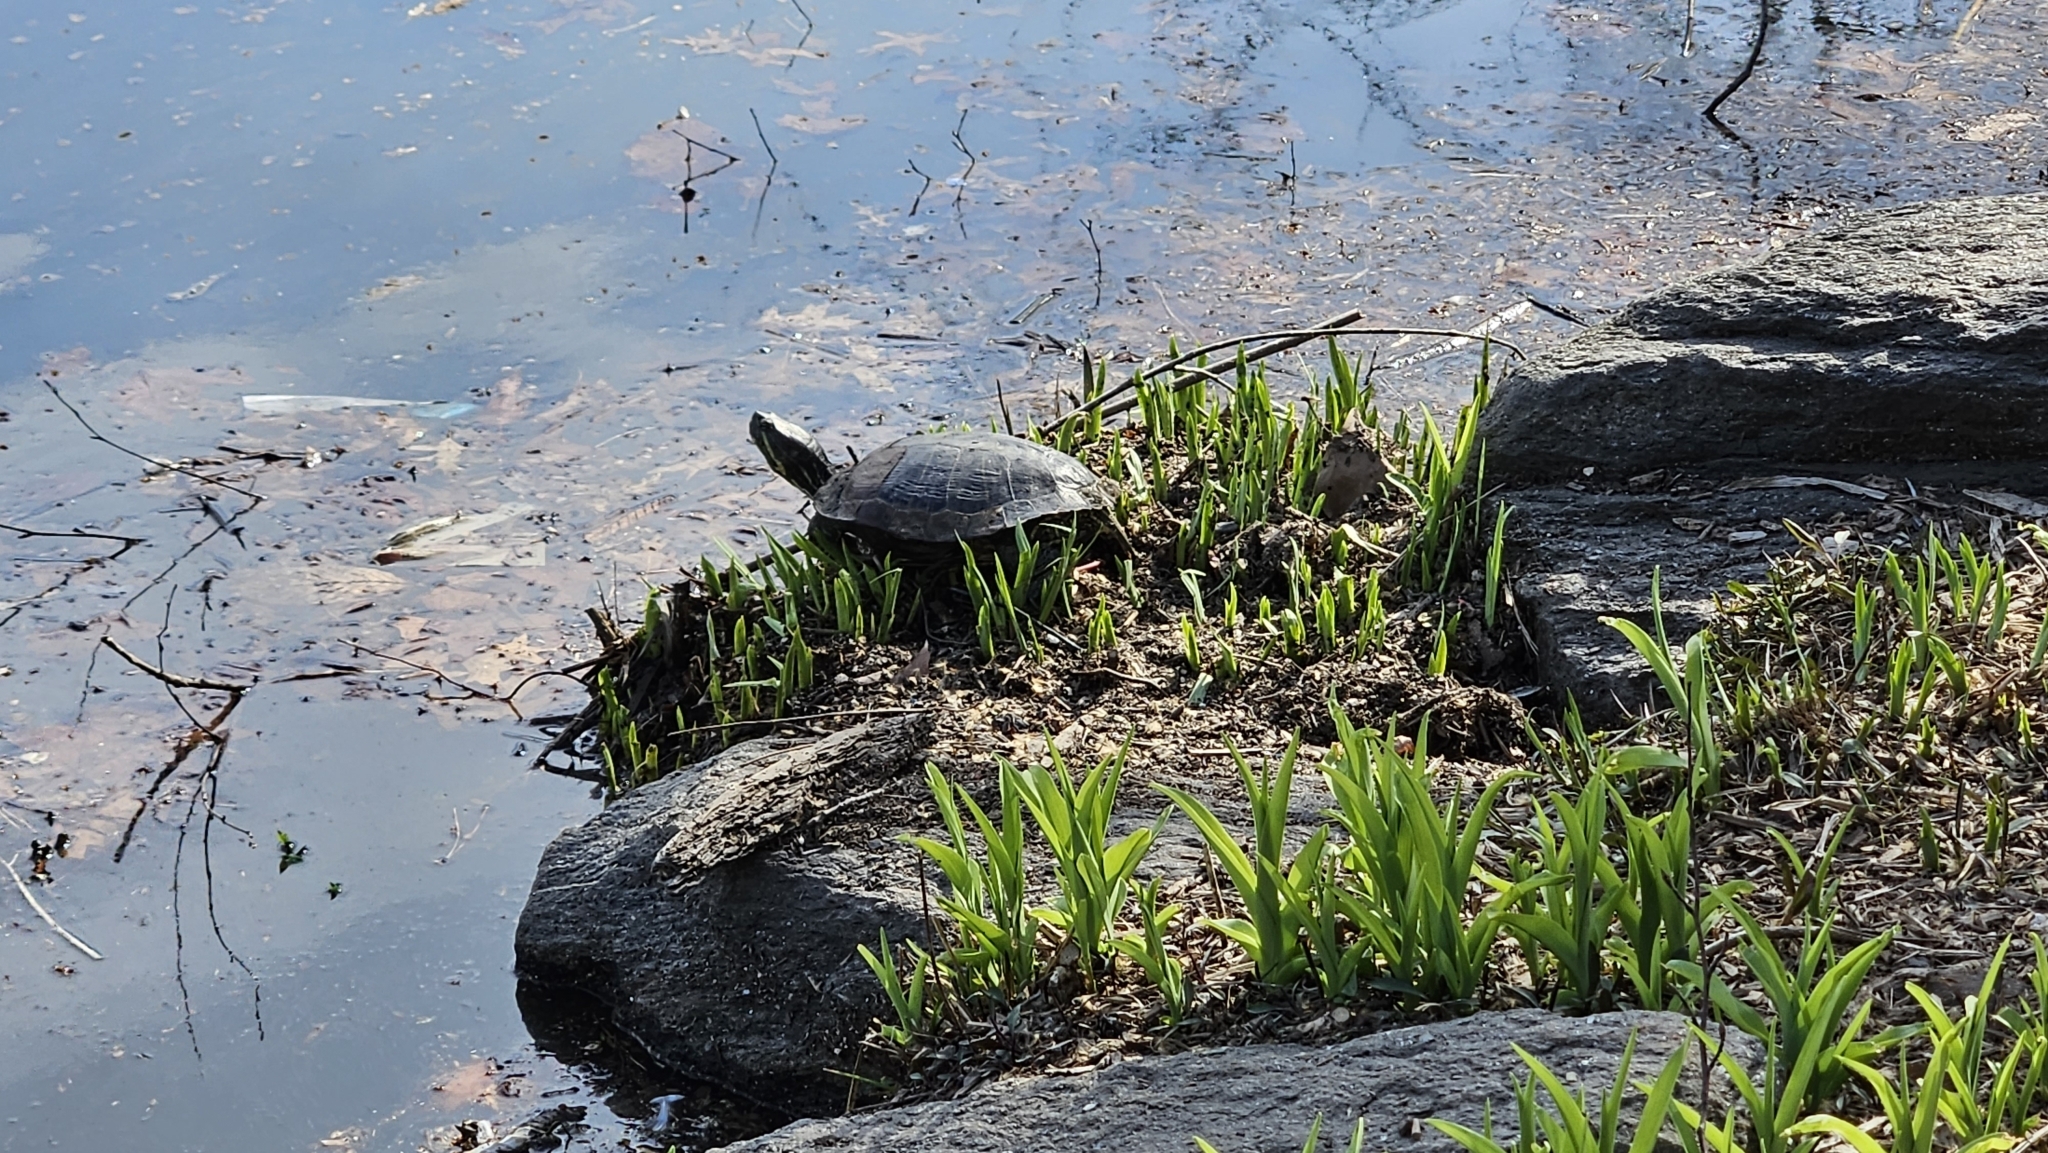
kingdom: Animalia
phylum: Chordata
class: Testudines
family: Emydidae
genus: Trachemys
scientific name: Trachemys scripta
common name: Slider
